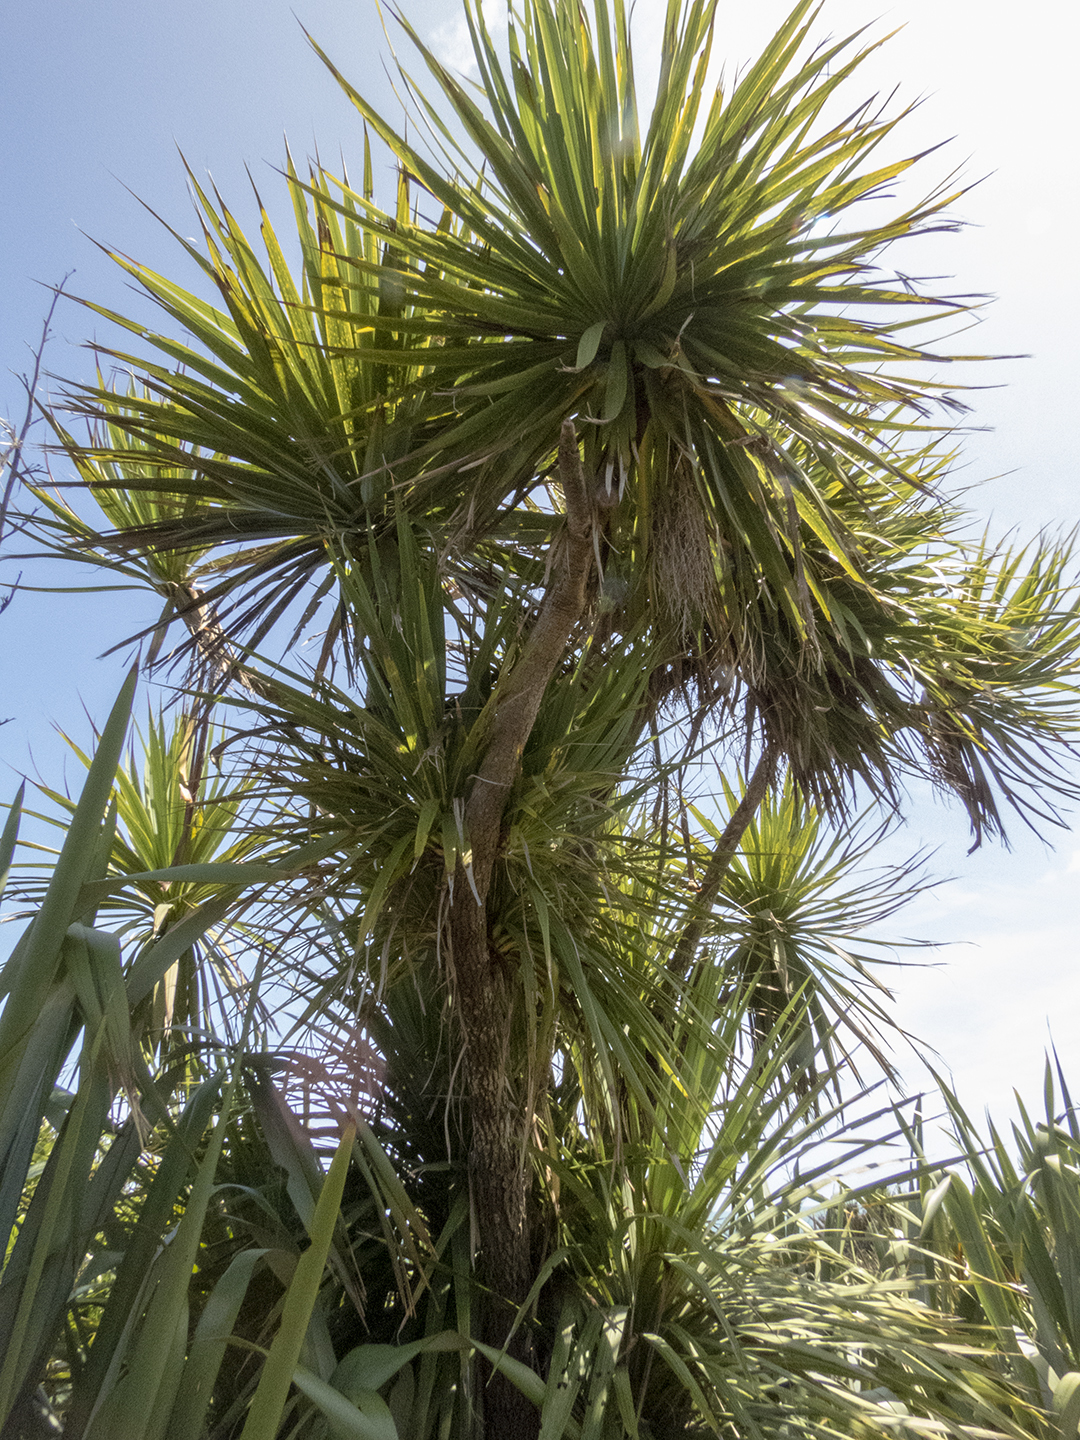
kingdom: Plantae
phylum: Tracheophyta
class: Liliopsida
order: Asparagales
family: Asparagaceae
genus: Cordyline
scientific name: Cordyline australis
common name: Cabbage-palm
